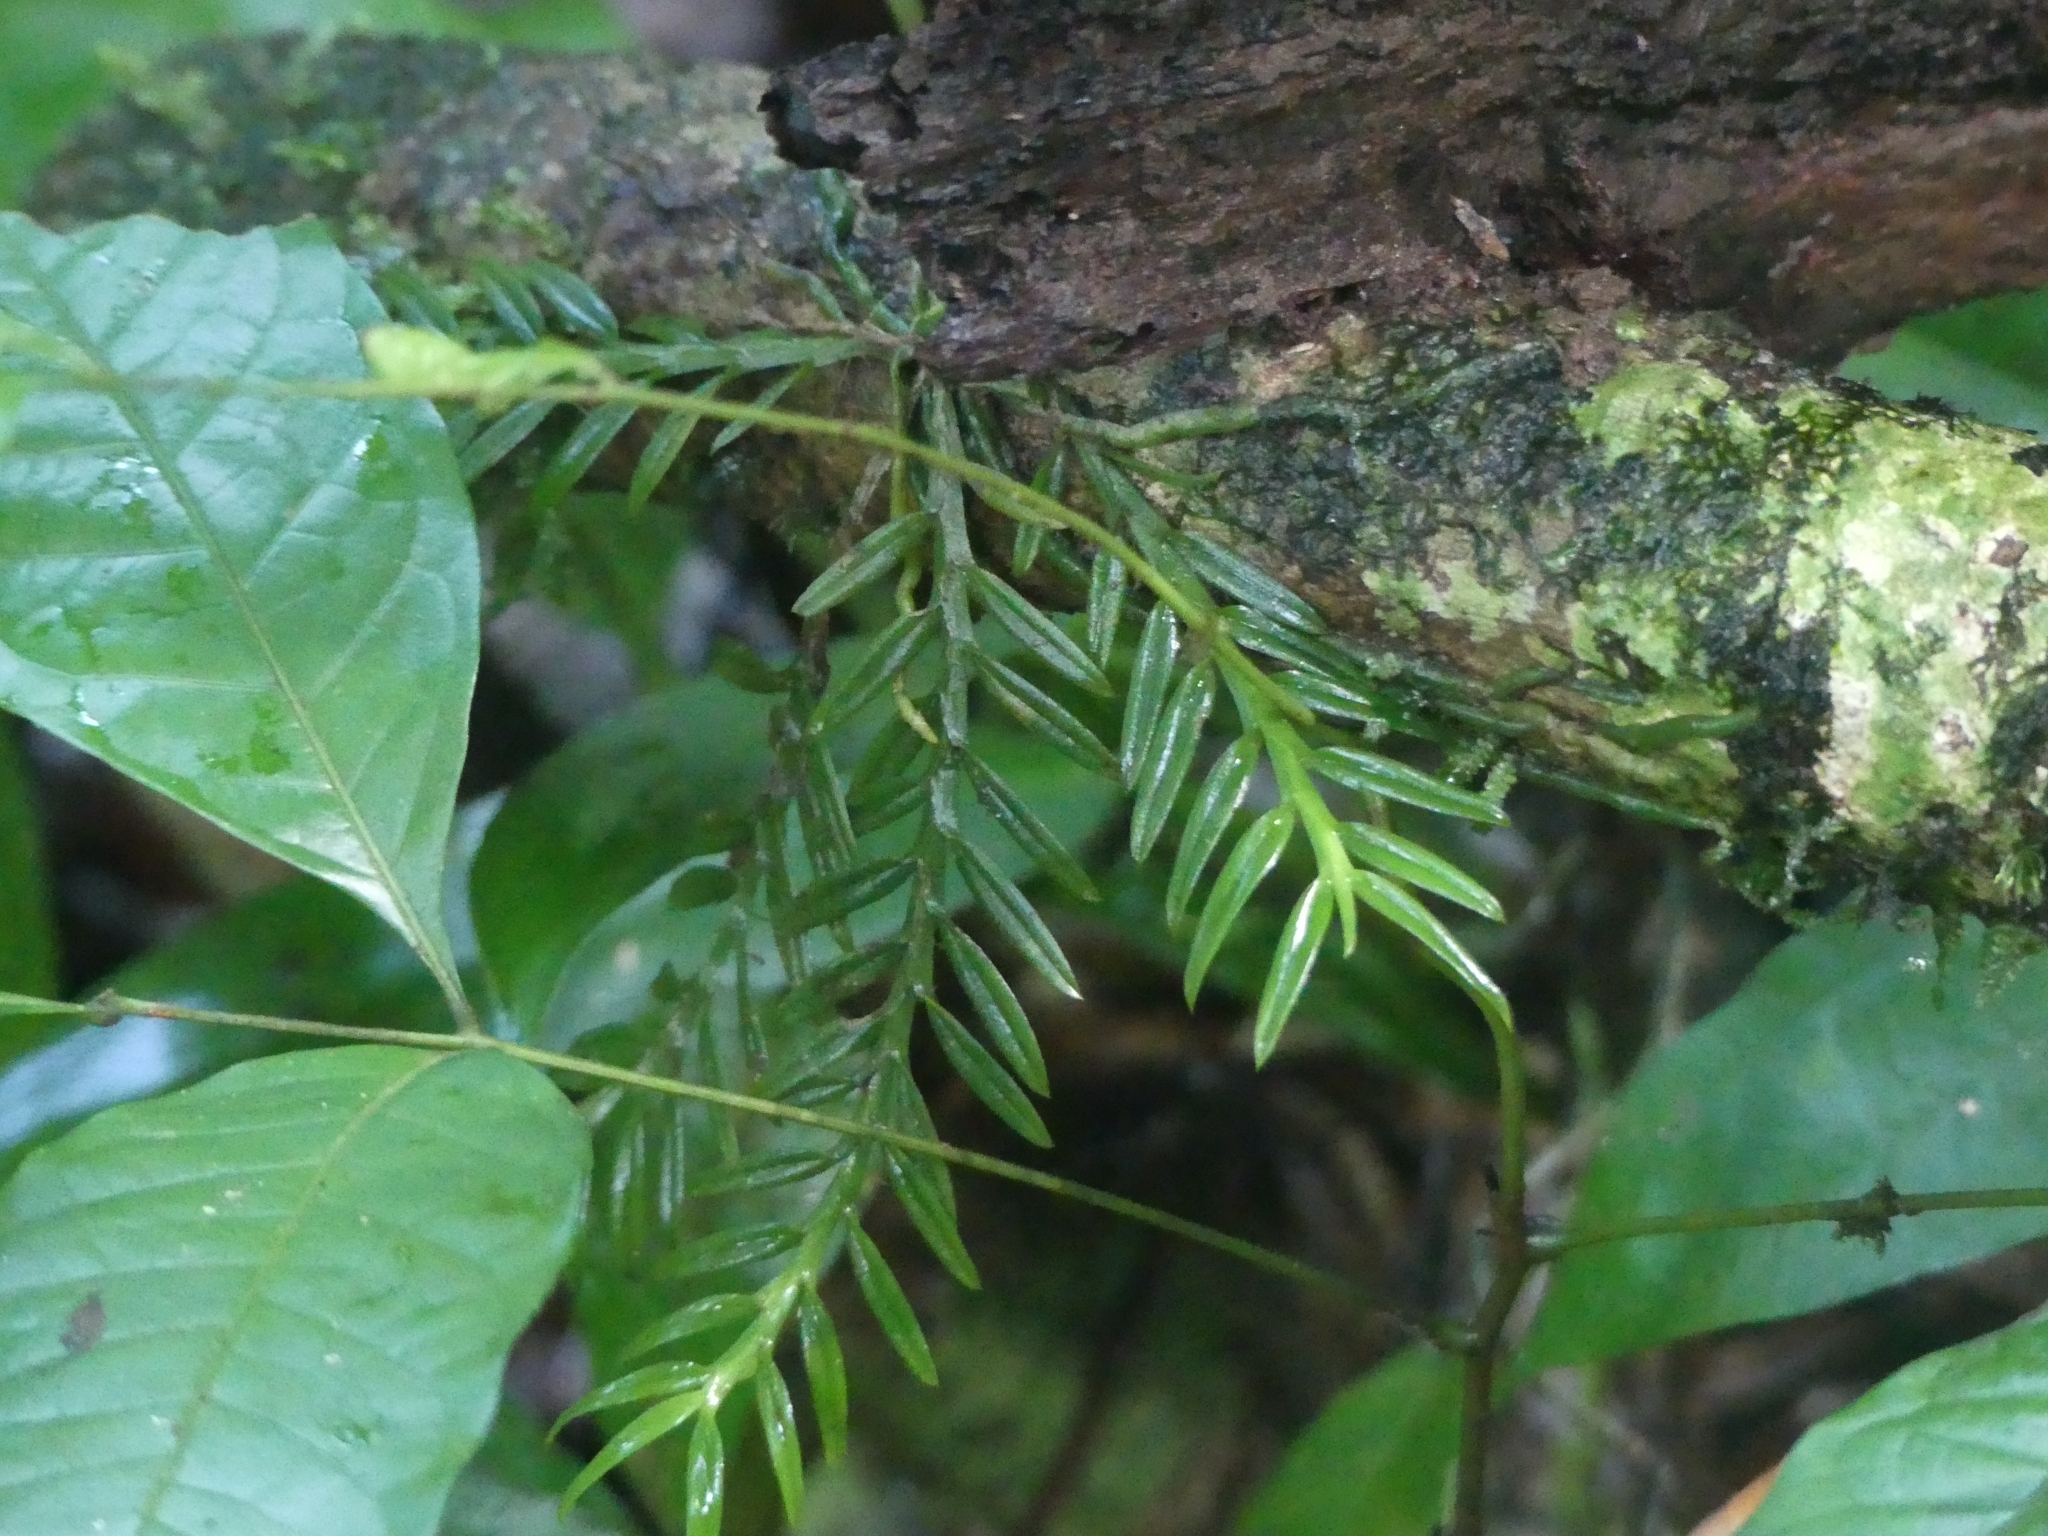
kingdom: Plantae
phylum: Tracheophyta
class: Liliopsida
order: Asparagales
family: Orchidaceae
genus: Dichaea
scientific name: Dichaea picta
